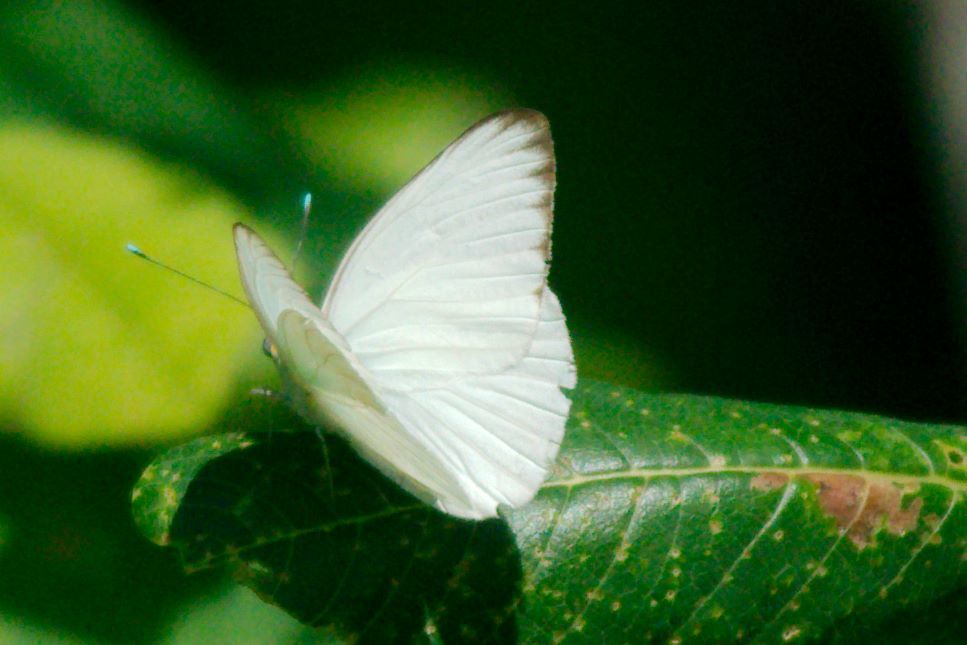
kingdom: Animalia
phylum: Arthropoda
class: Insecta
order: Lepidoptera
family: Pieridae
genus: Ascia
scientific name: Ascia monuste
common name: Great southern white
